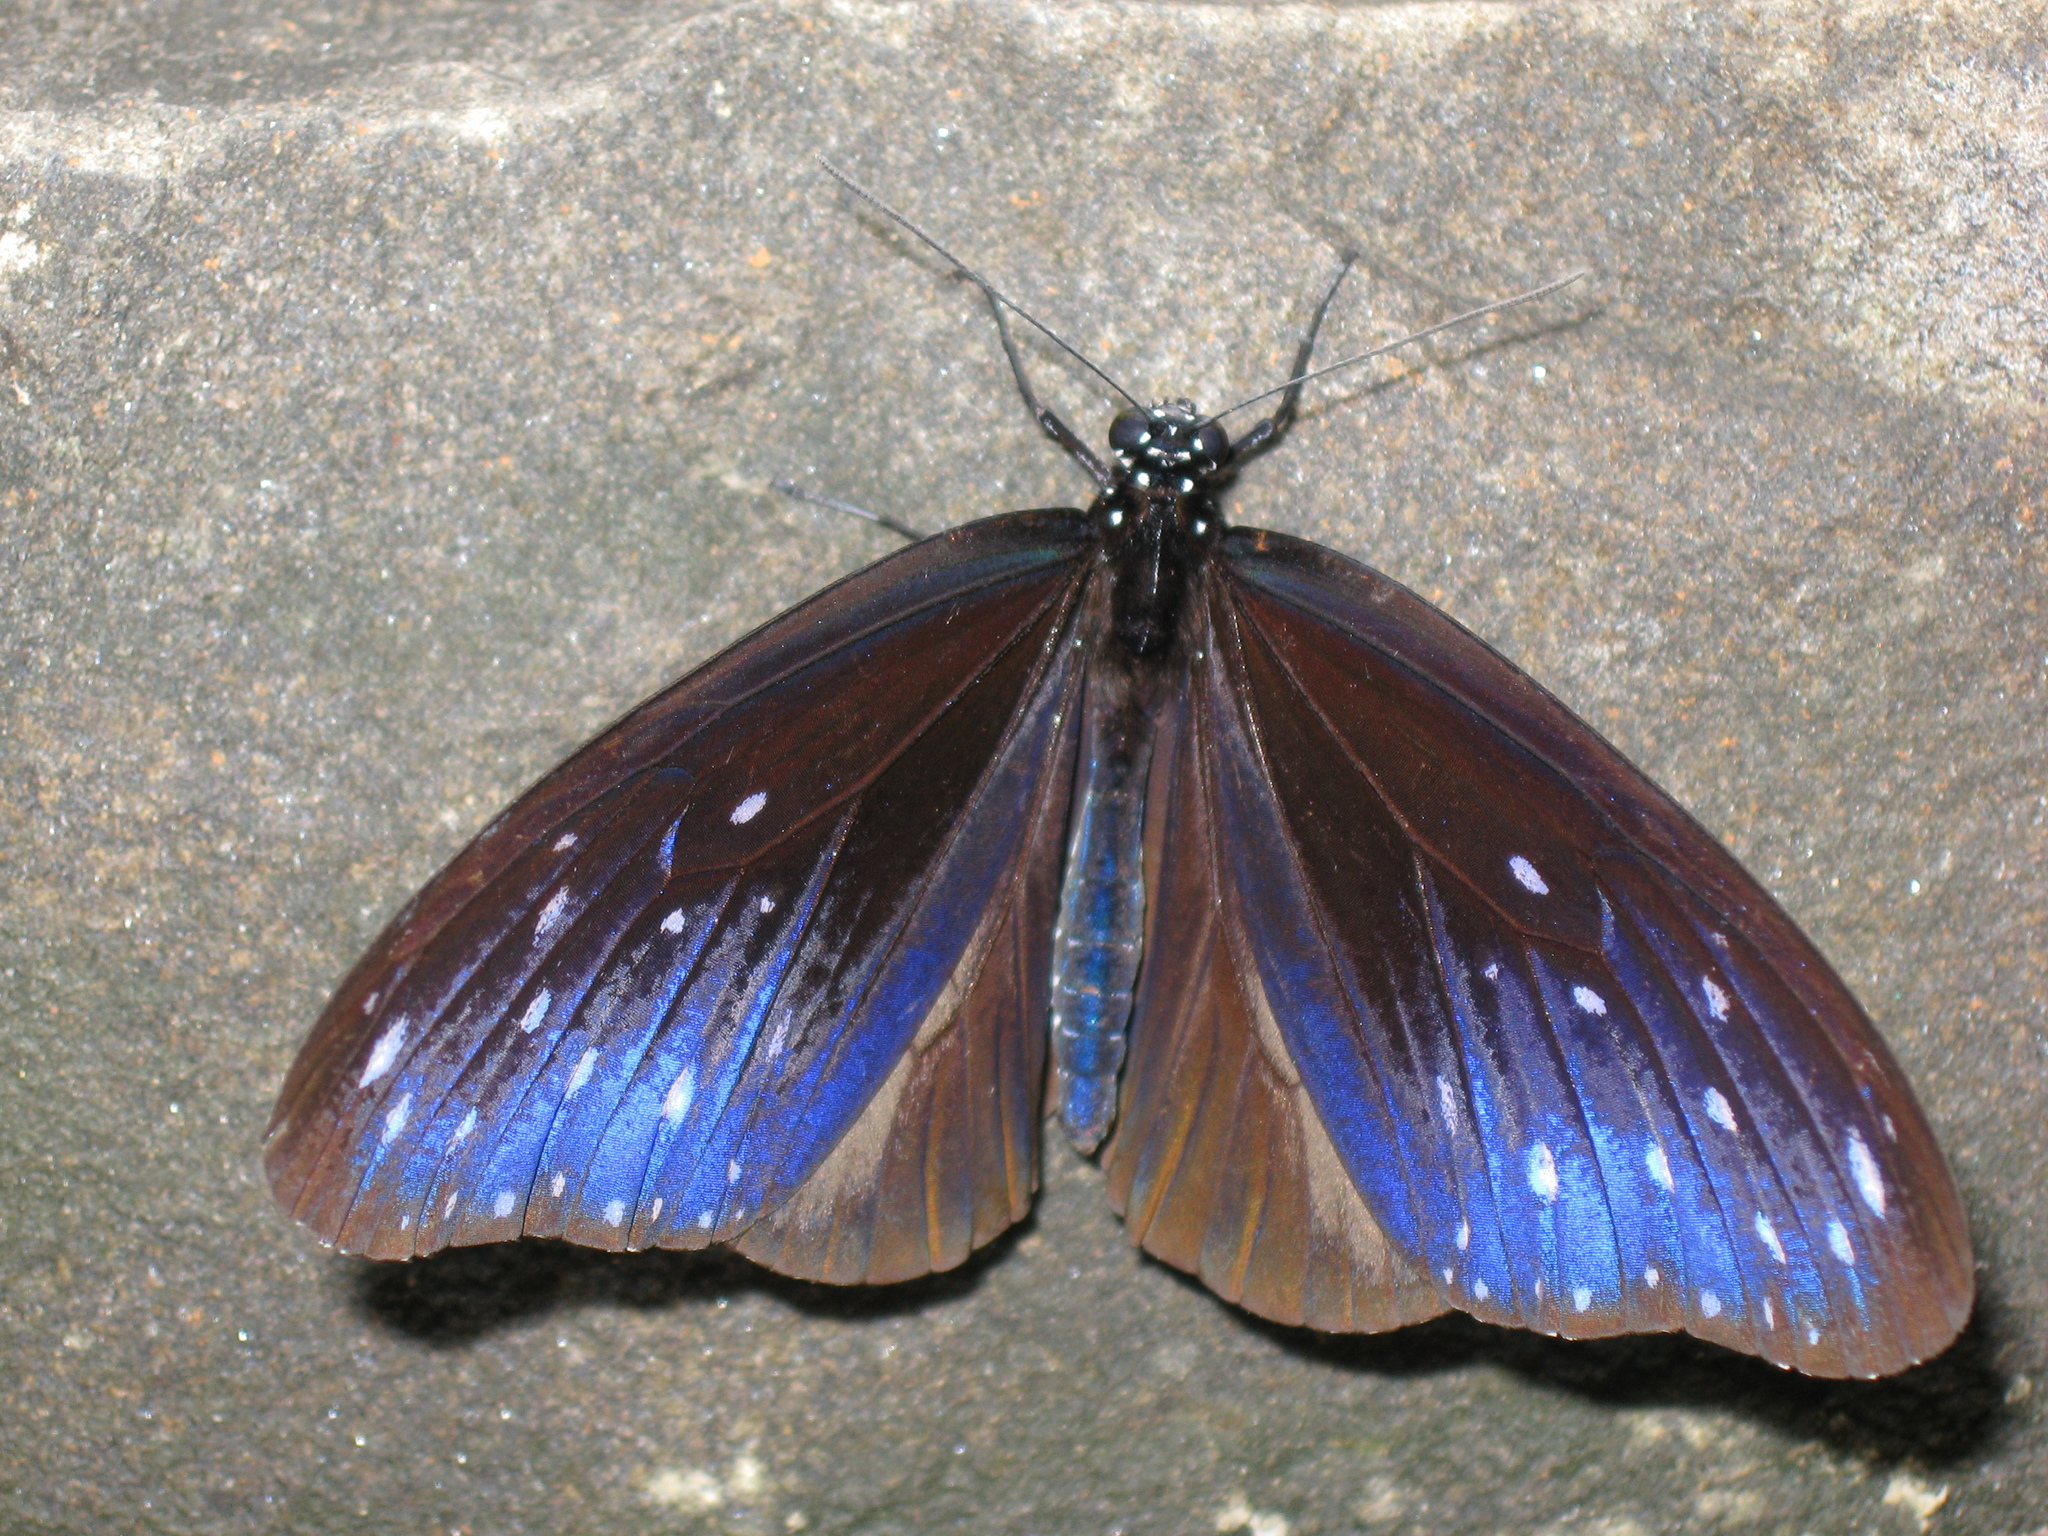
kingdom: Animalia
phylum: Arthropoda
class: Insecta
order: Lepidoptera
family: Nymphalidae
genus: Euploea
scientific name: Euploea mulciber
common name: Striped blue crow butterfly
